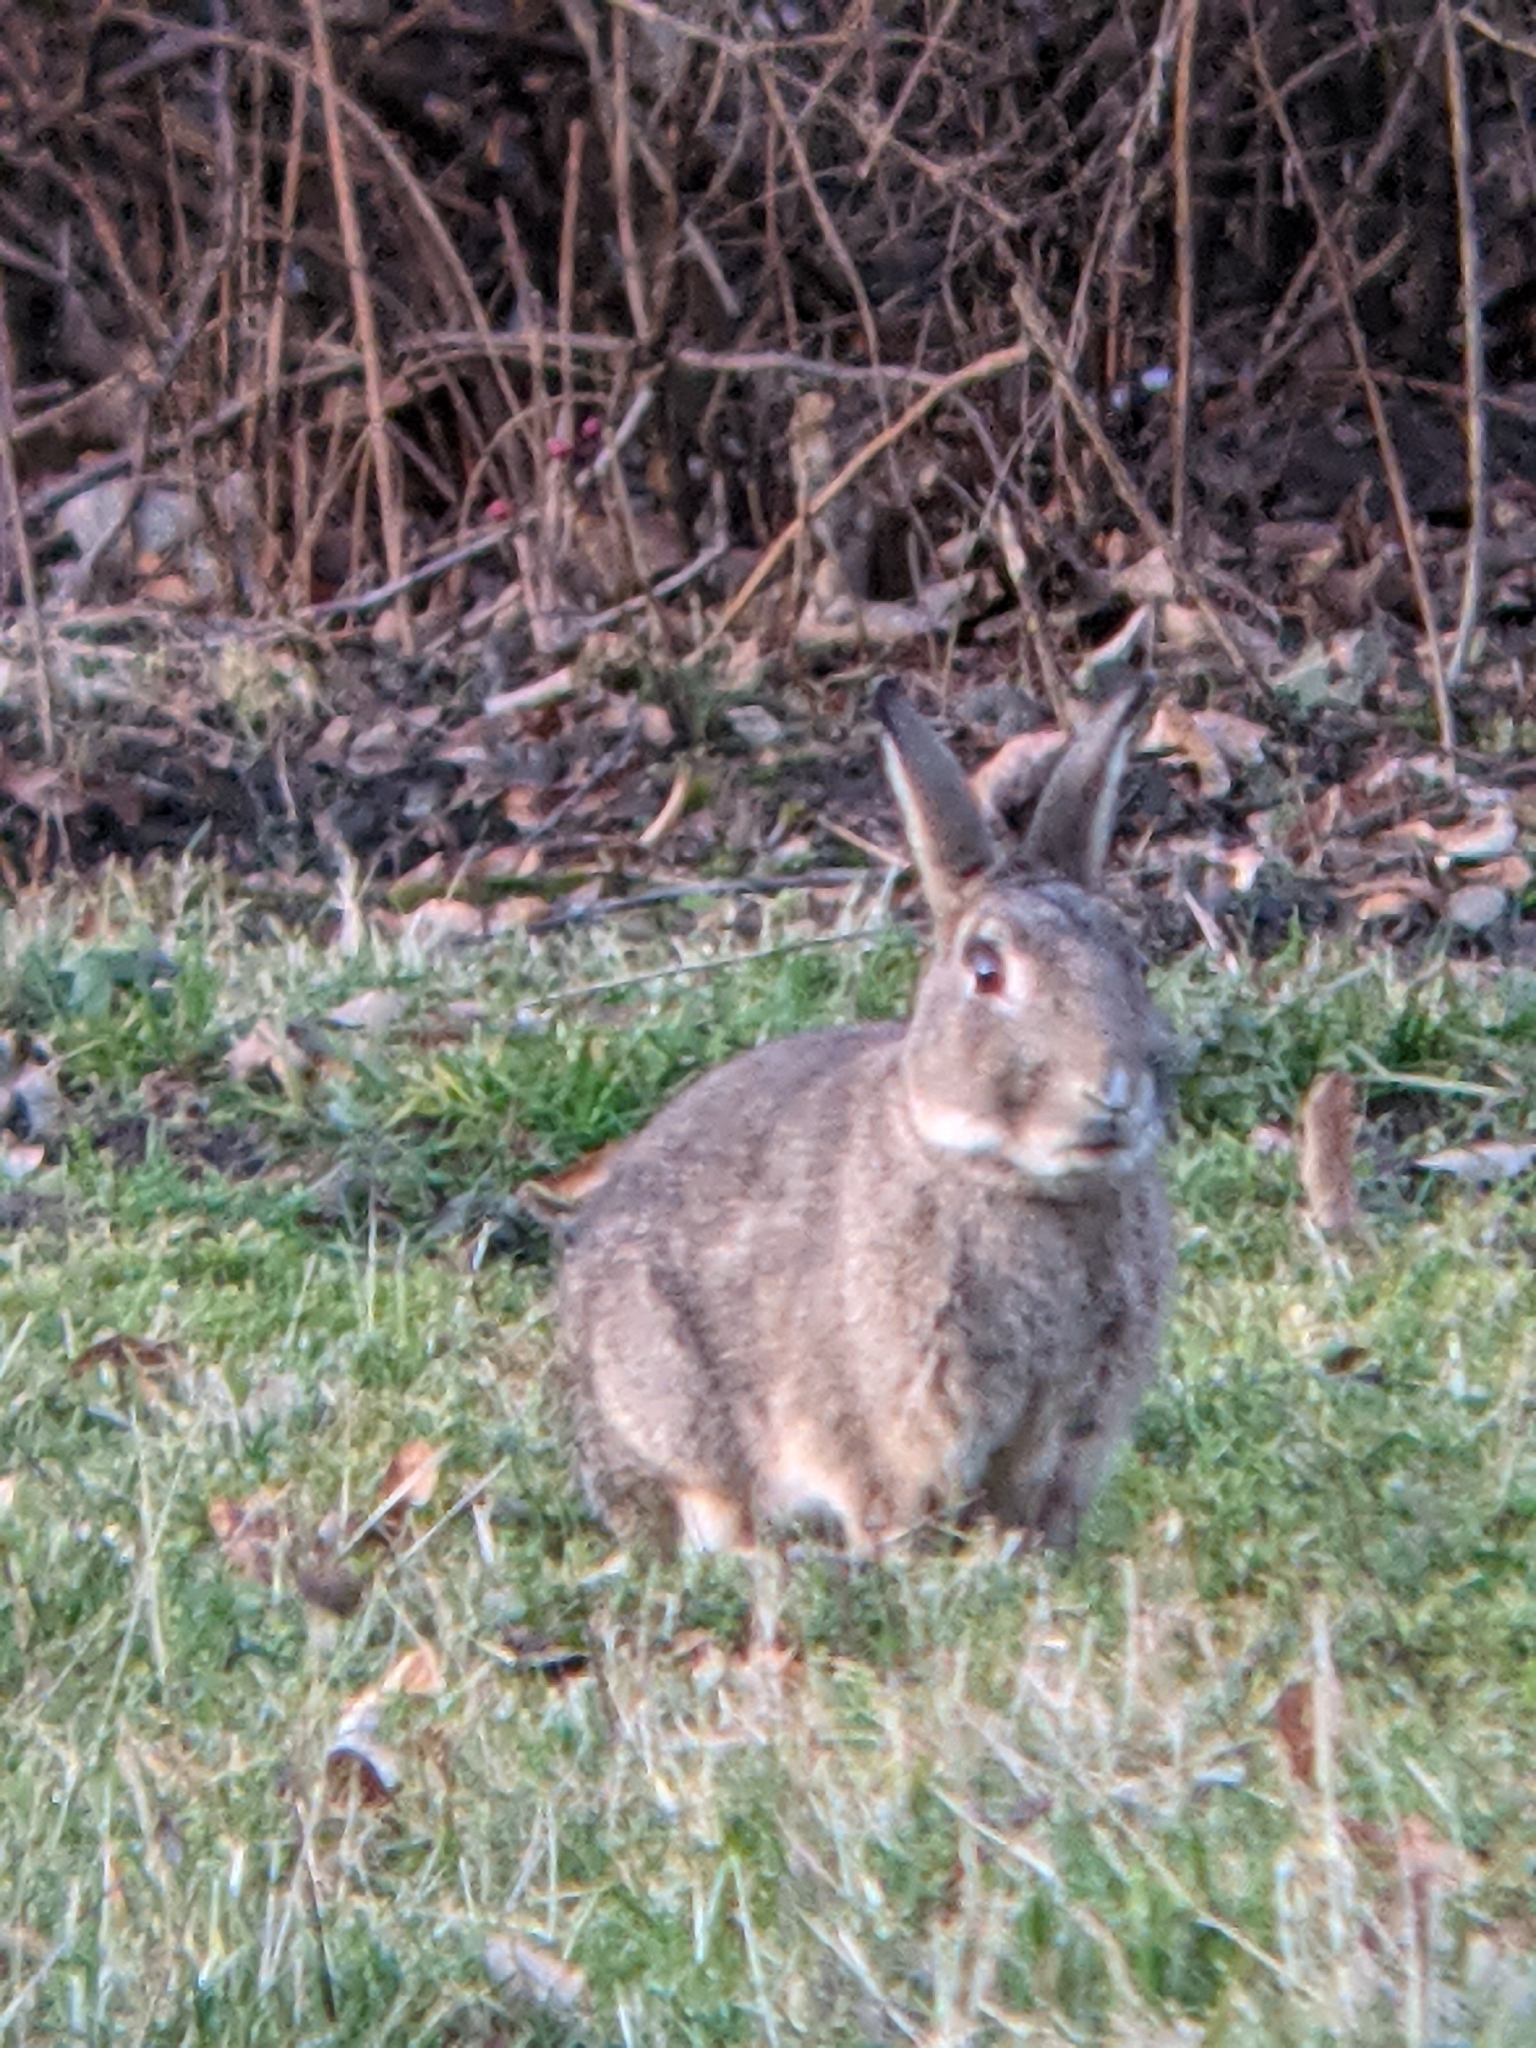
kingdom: Animalia
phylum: Chordata
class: Mammalia
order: Lagomorpha
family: Leporidae
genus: Oryctolagus
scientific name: Oryctolagus cuniculus
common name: European rabbit
